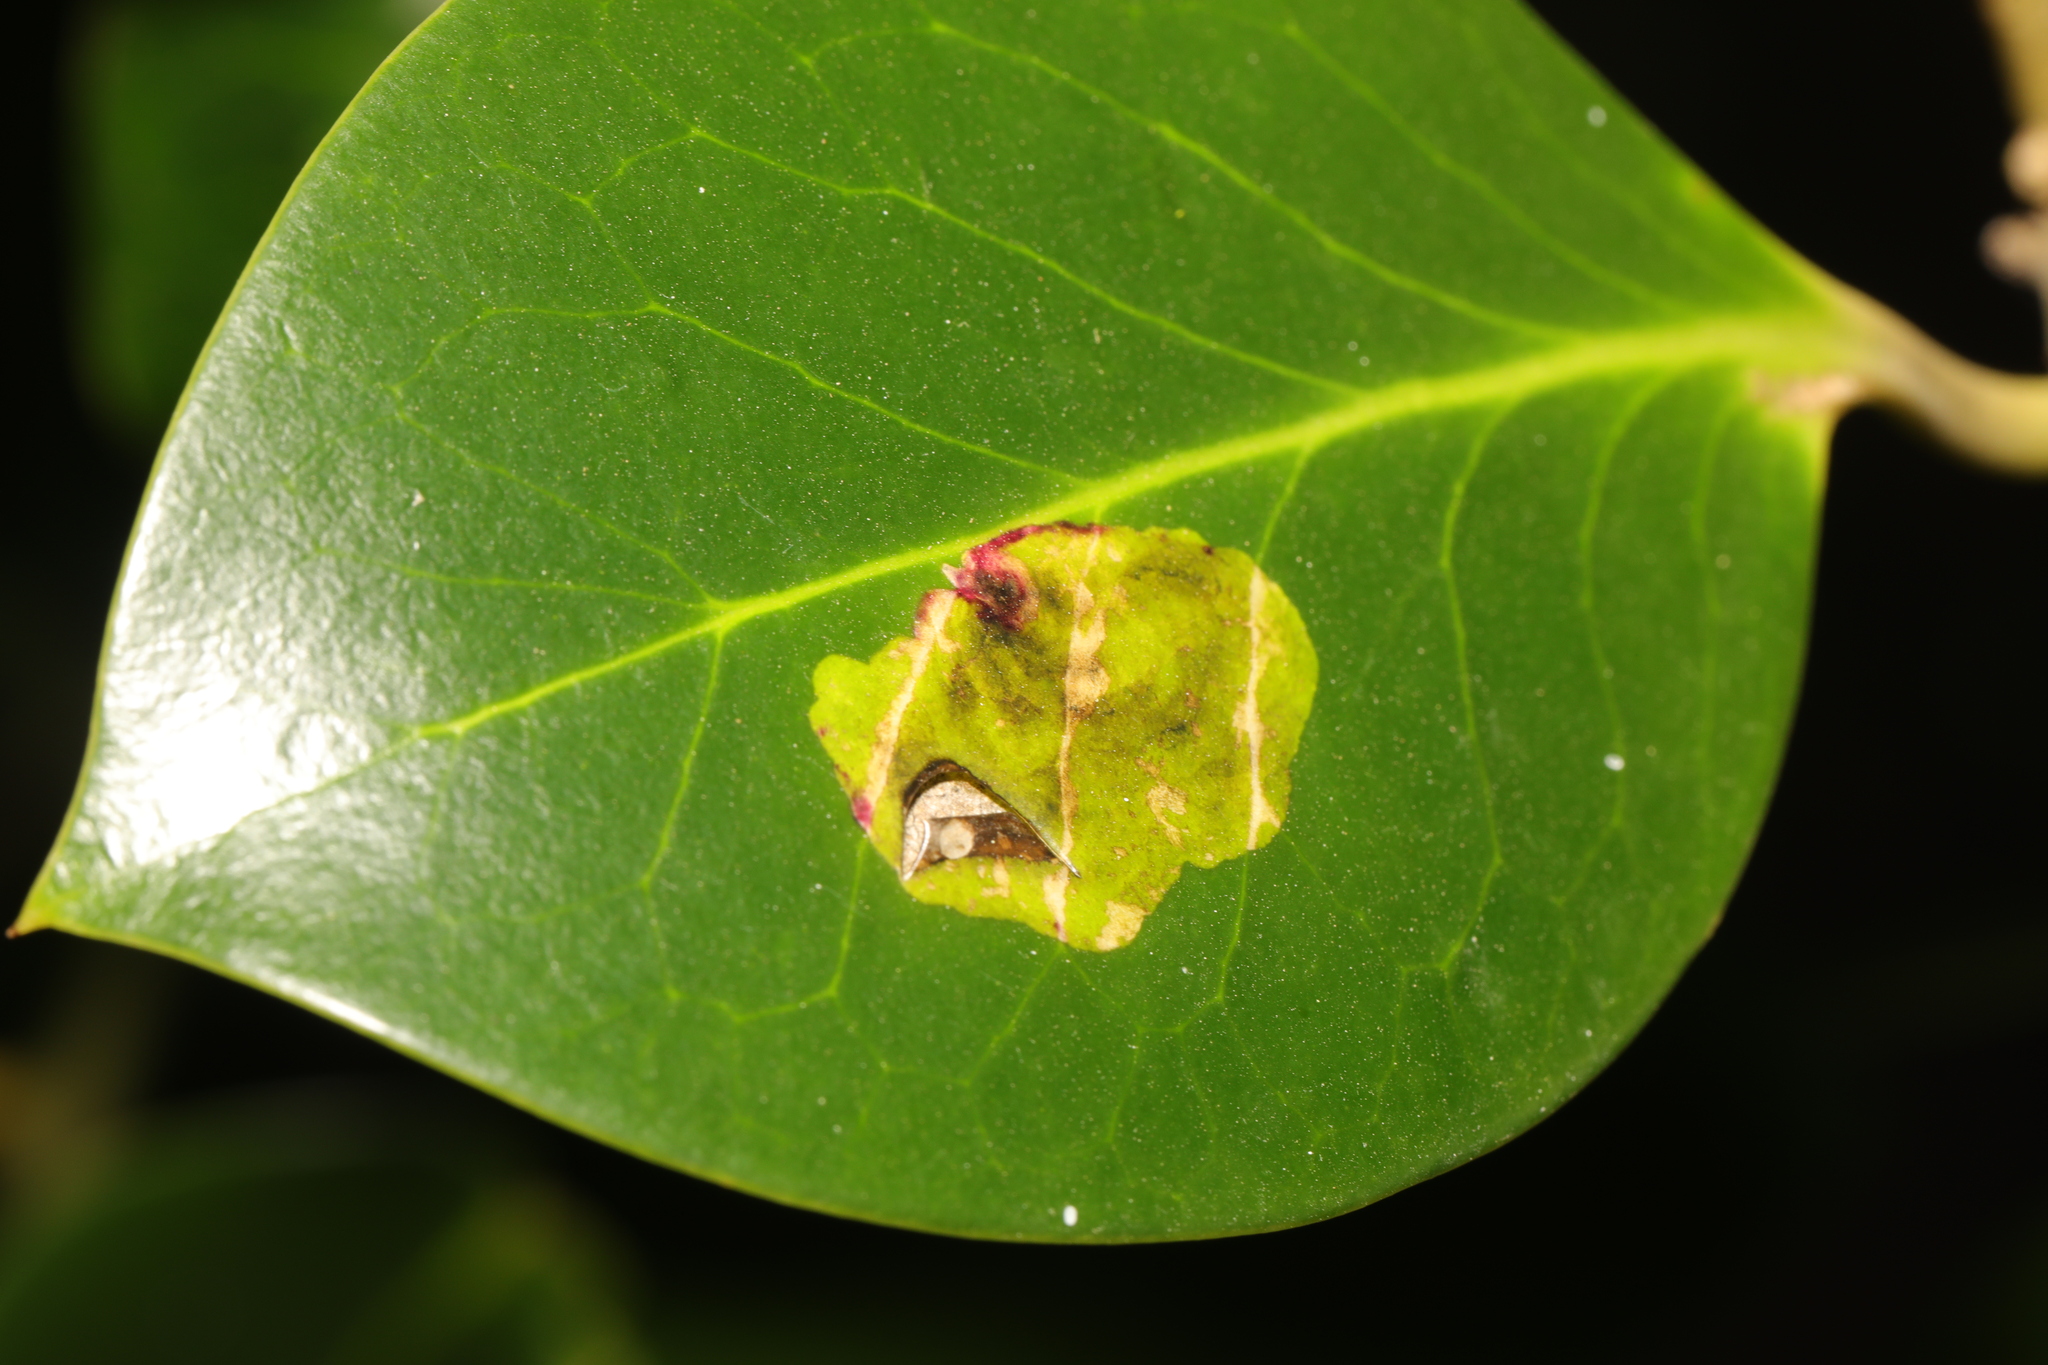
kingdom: Animalia
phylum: Arthropoda
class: Insecta
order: Diptera
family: Agromyzidae
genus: Phytomyza
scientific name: Phytomyza ilicis
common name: Holly leafminer
